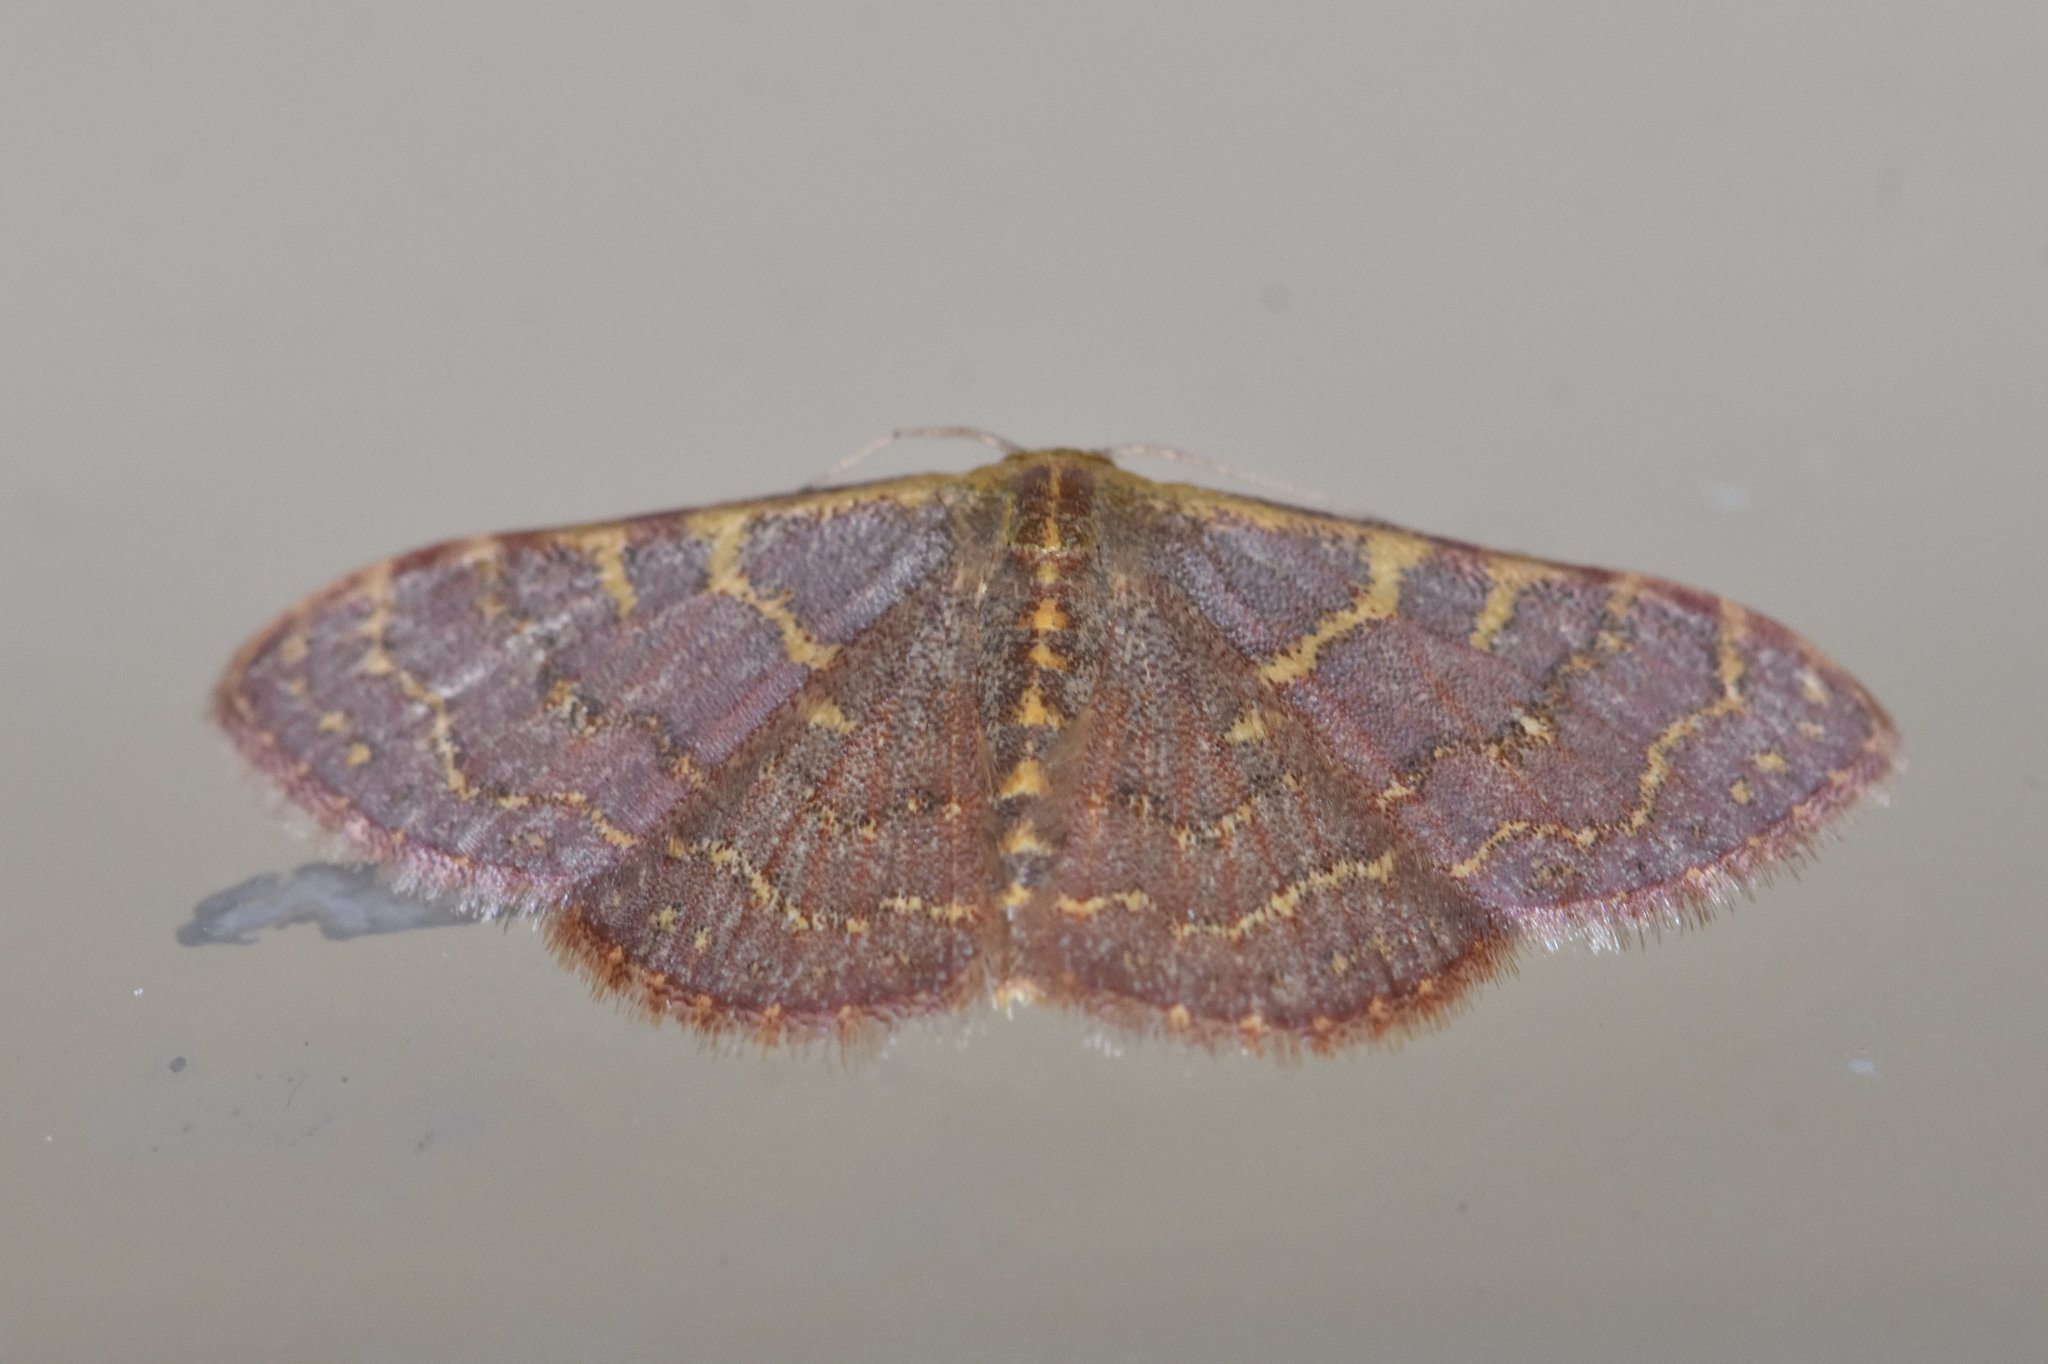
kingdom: Animalia
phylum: Arthropoda
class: Insecta
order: Lepidoptera
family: Geometridae
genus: Leptostales
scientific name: Leptostales pannaria
